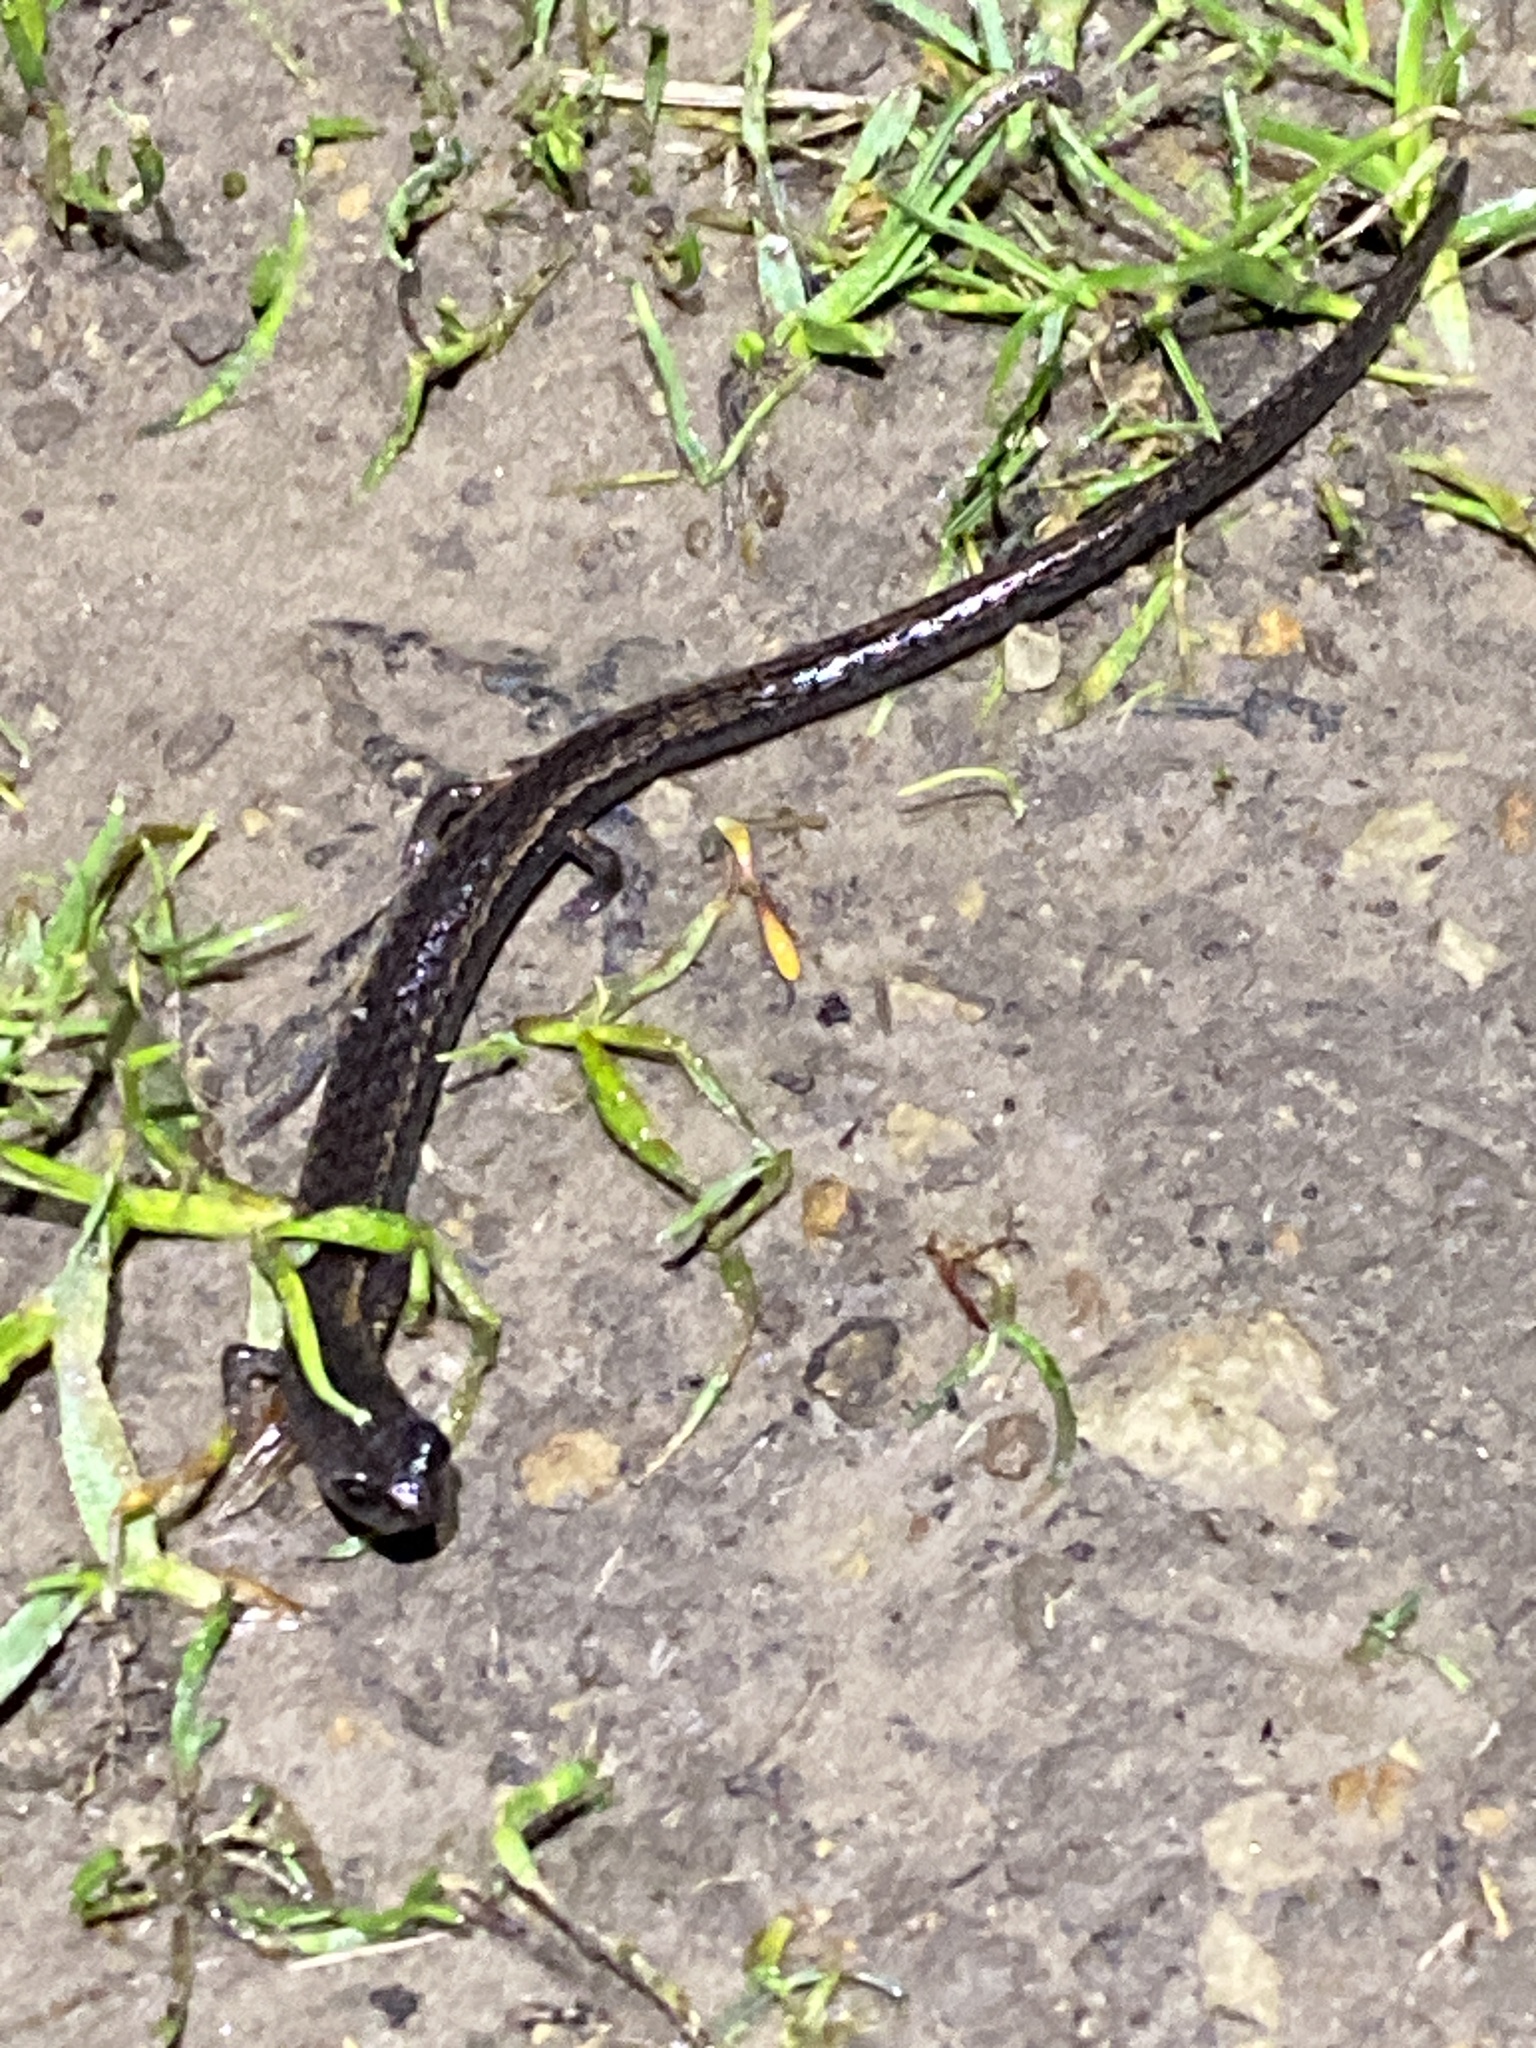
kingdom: Animalia
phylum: Chordata
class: Amphibia
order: Caudata
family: Plethodontidae
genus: Batrachoseps
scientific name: Batrachoseps attenuatus
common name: California slender salamander
